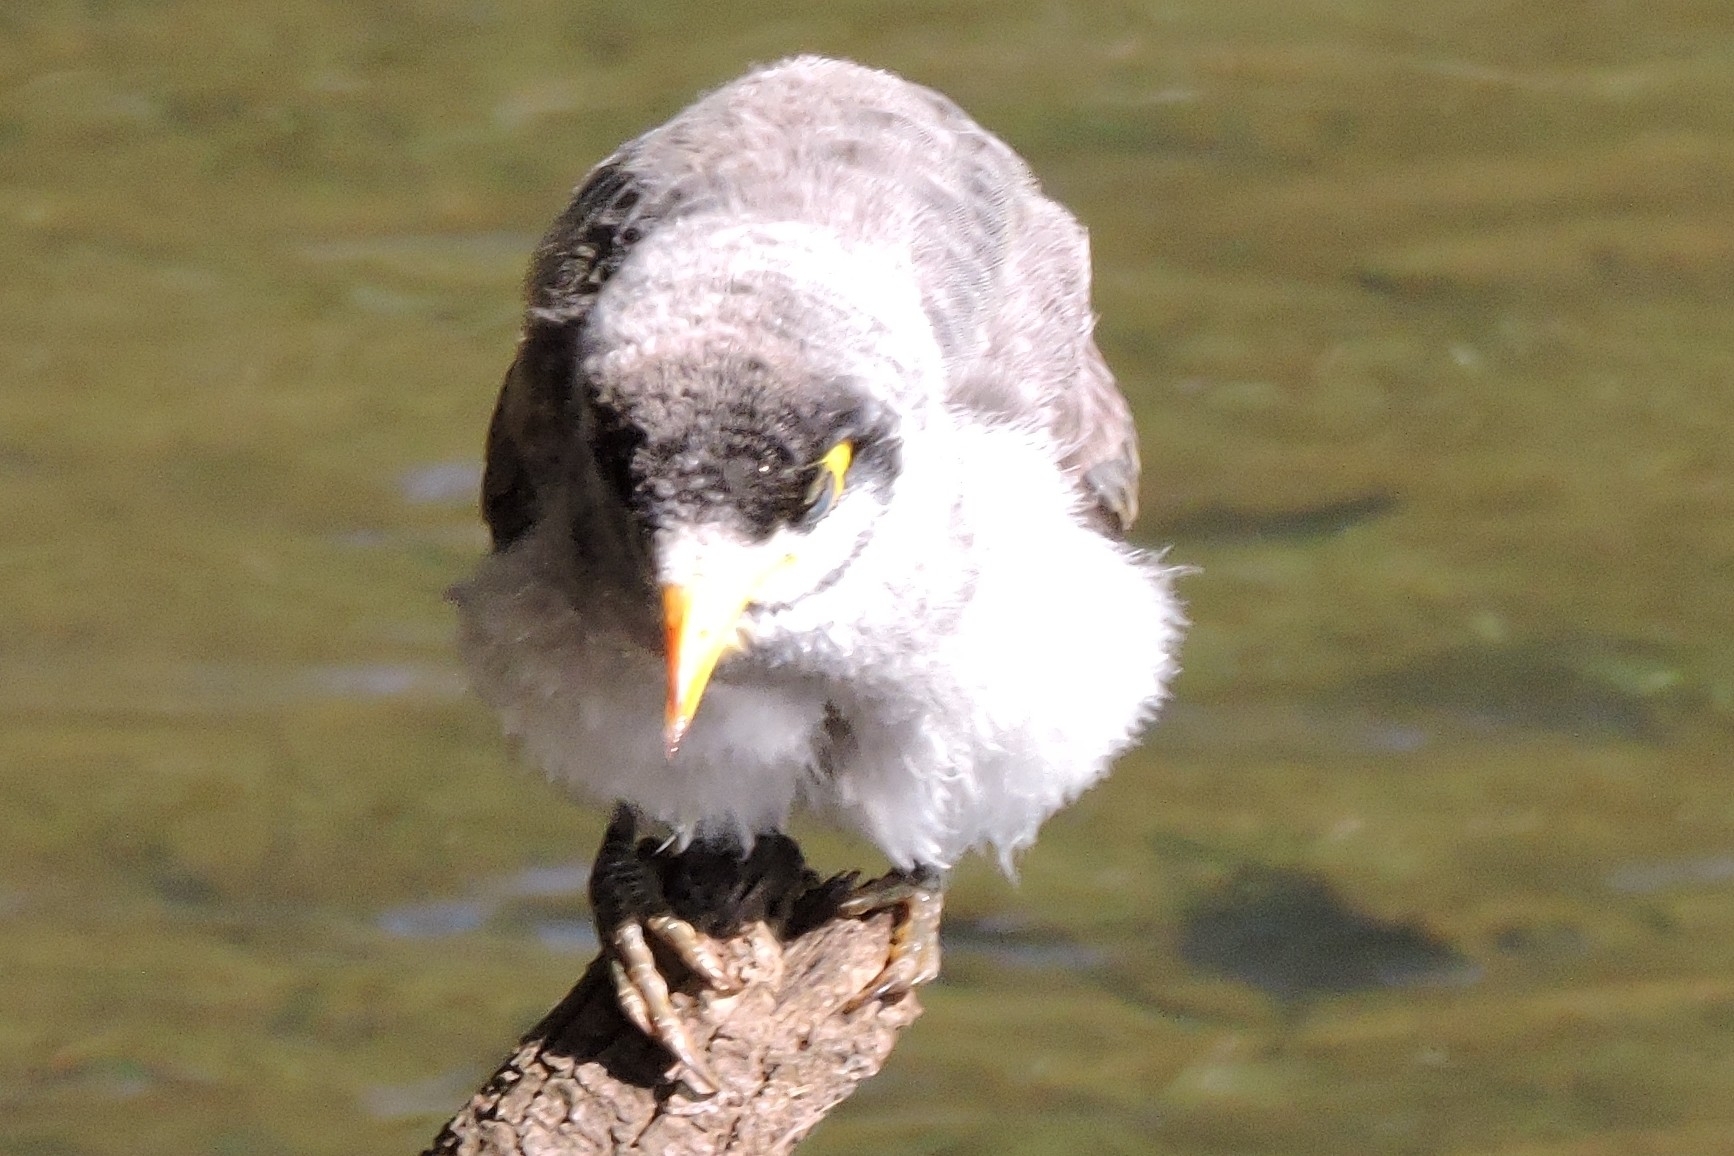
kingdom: Animalia
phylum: Chordata
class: Aves
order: Passeriformes
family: Meliphagidae
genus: Manorina
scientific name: Manorina melanocephala
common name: Noisy miner
